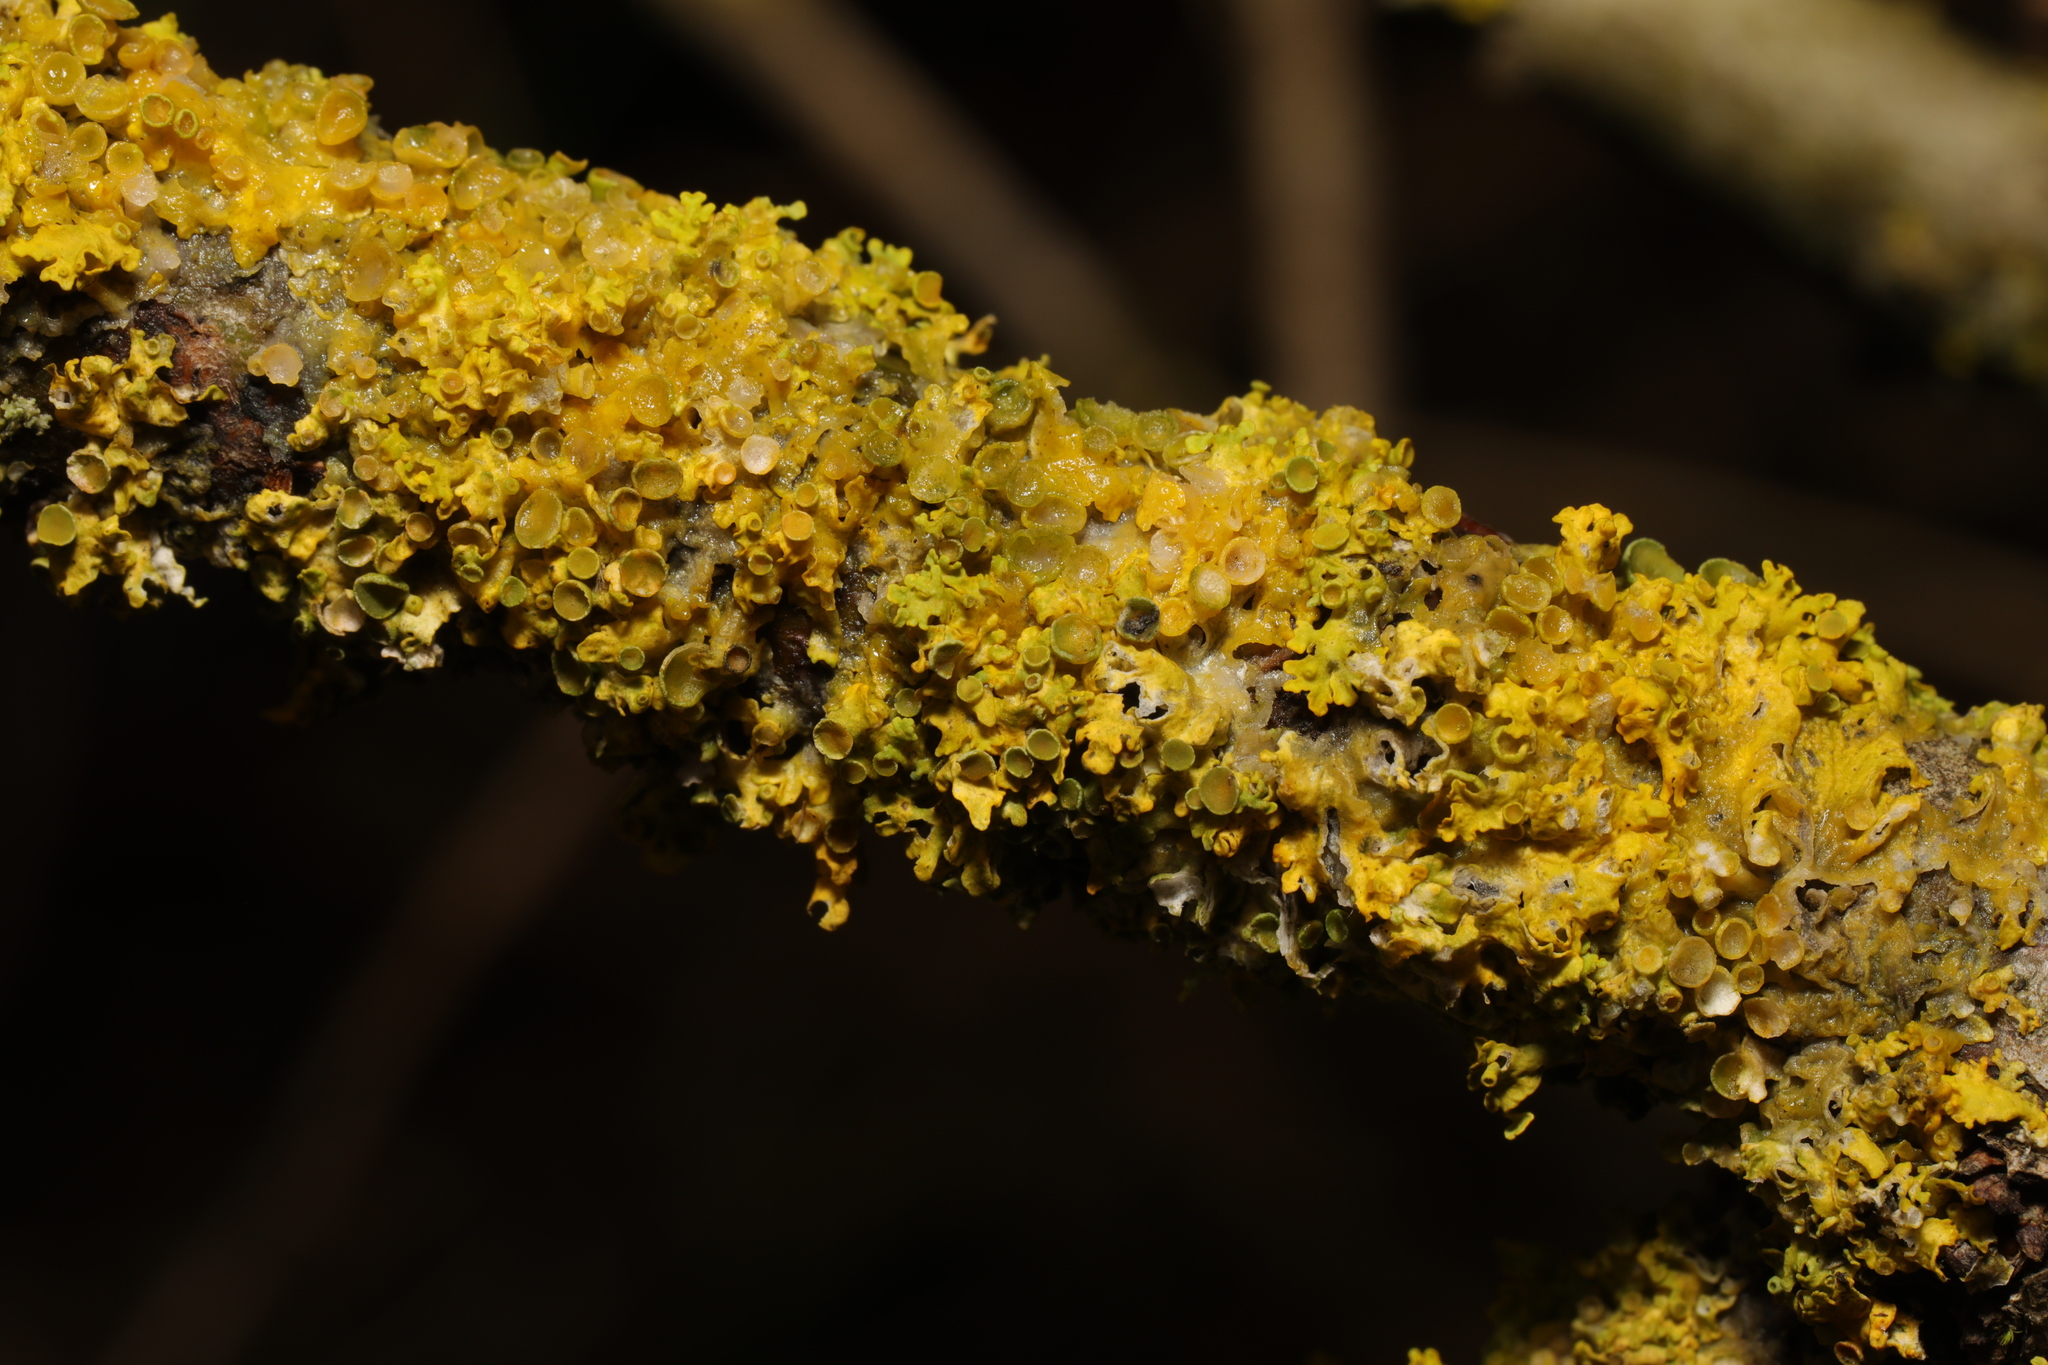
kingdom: Fungi
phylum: Ascomycota
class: Lecanoromycetes
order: Teloschistales
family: Teloschistaceae
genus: Xanthoria
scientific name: Xanthoria parietina
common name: Common orange lichen
